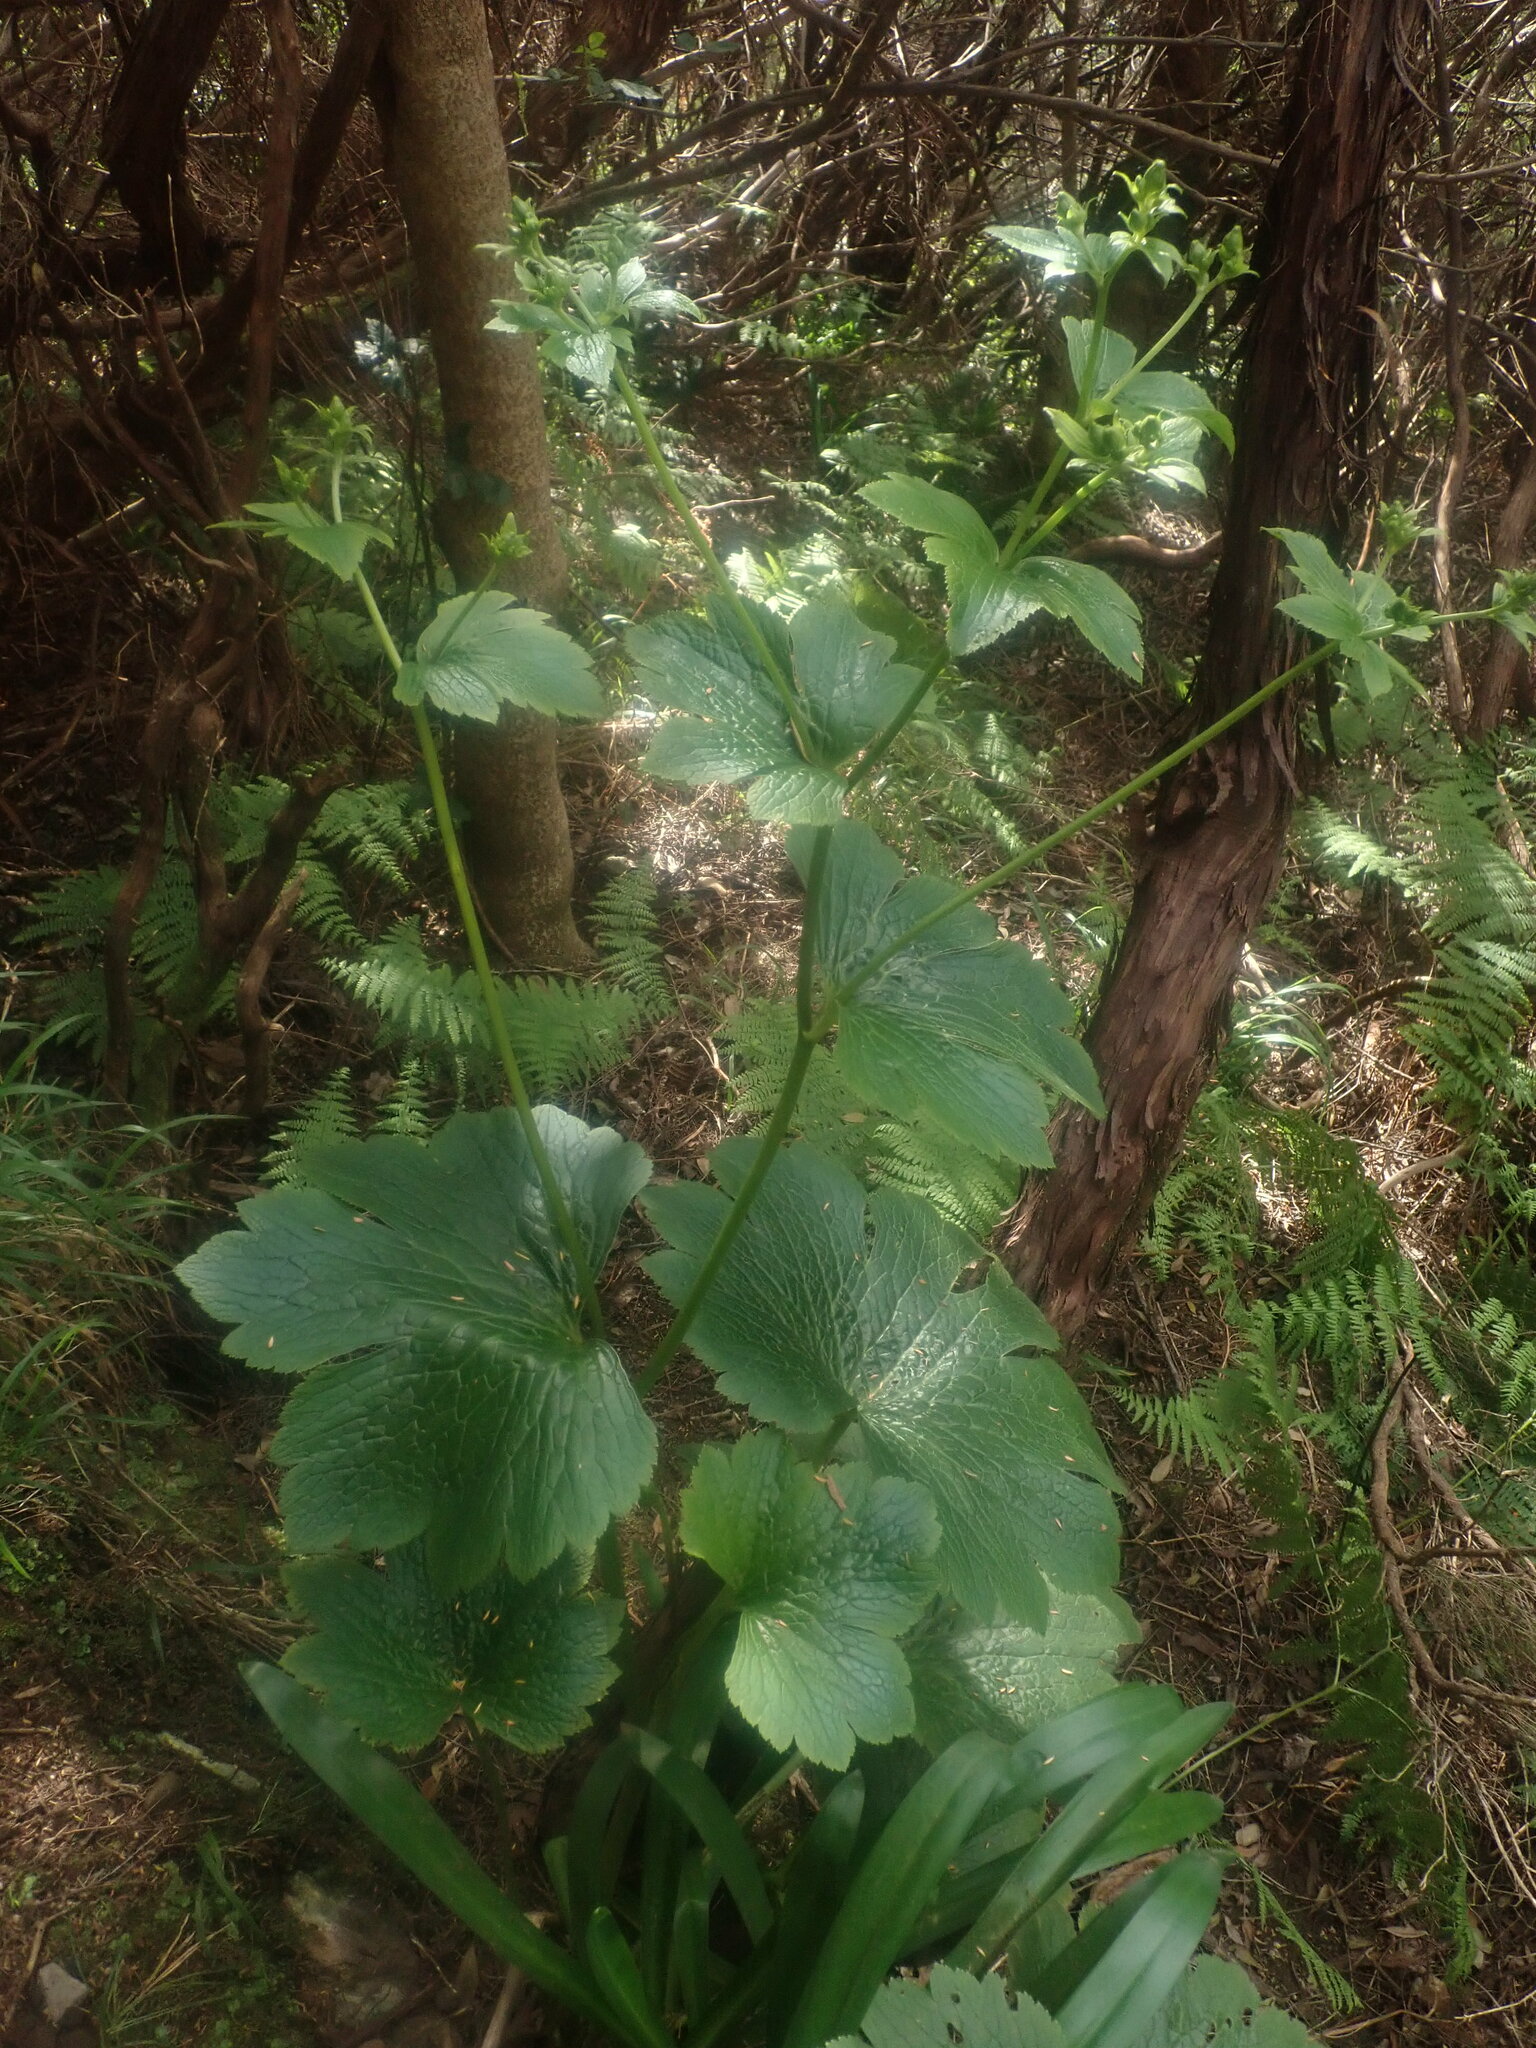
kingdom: Plantae
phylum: Tracheophyta
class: Magnoliopsida
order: Ranunculales
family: Ranunculaceae
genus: Ranunculus
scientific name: Ranunculus cortusifolius
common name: Azores buttercup
